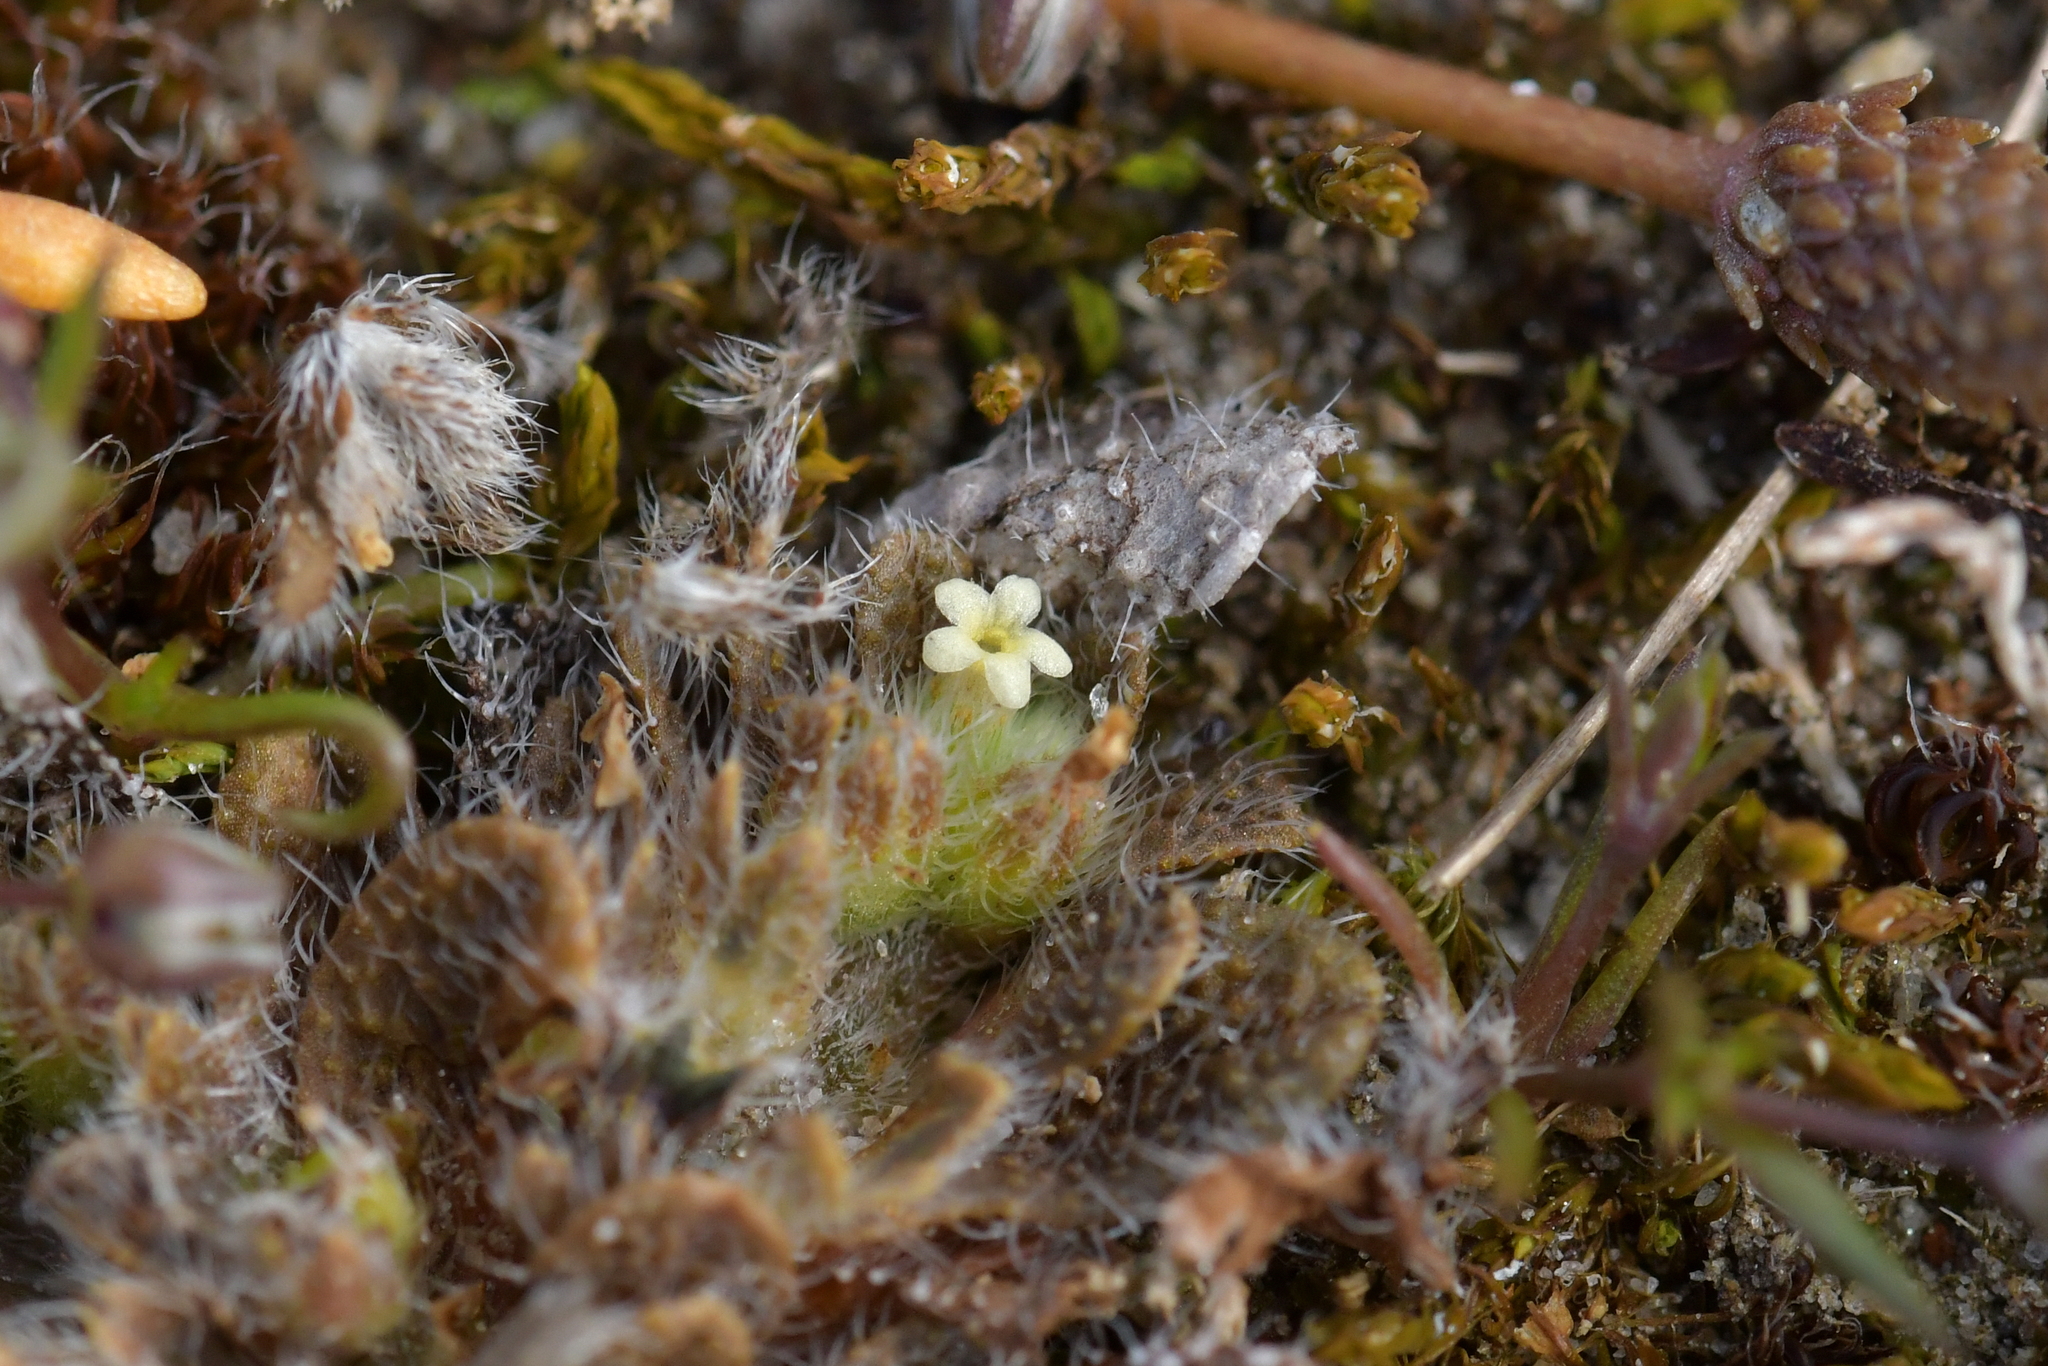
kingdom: Plantae
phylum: Tracheophyta
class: Magnoliopsida
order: Boraginales
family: Boraginaceae
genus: Myosotis
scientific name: Myosotis brevis
